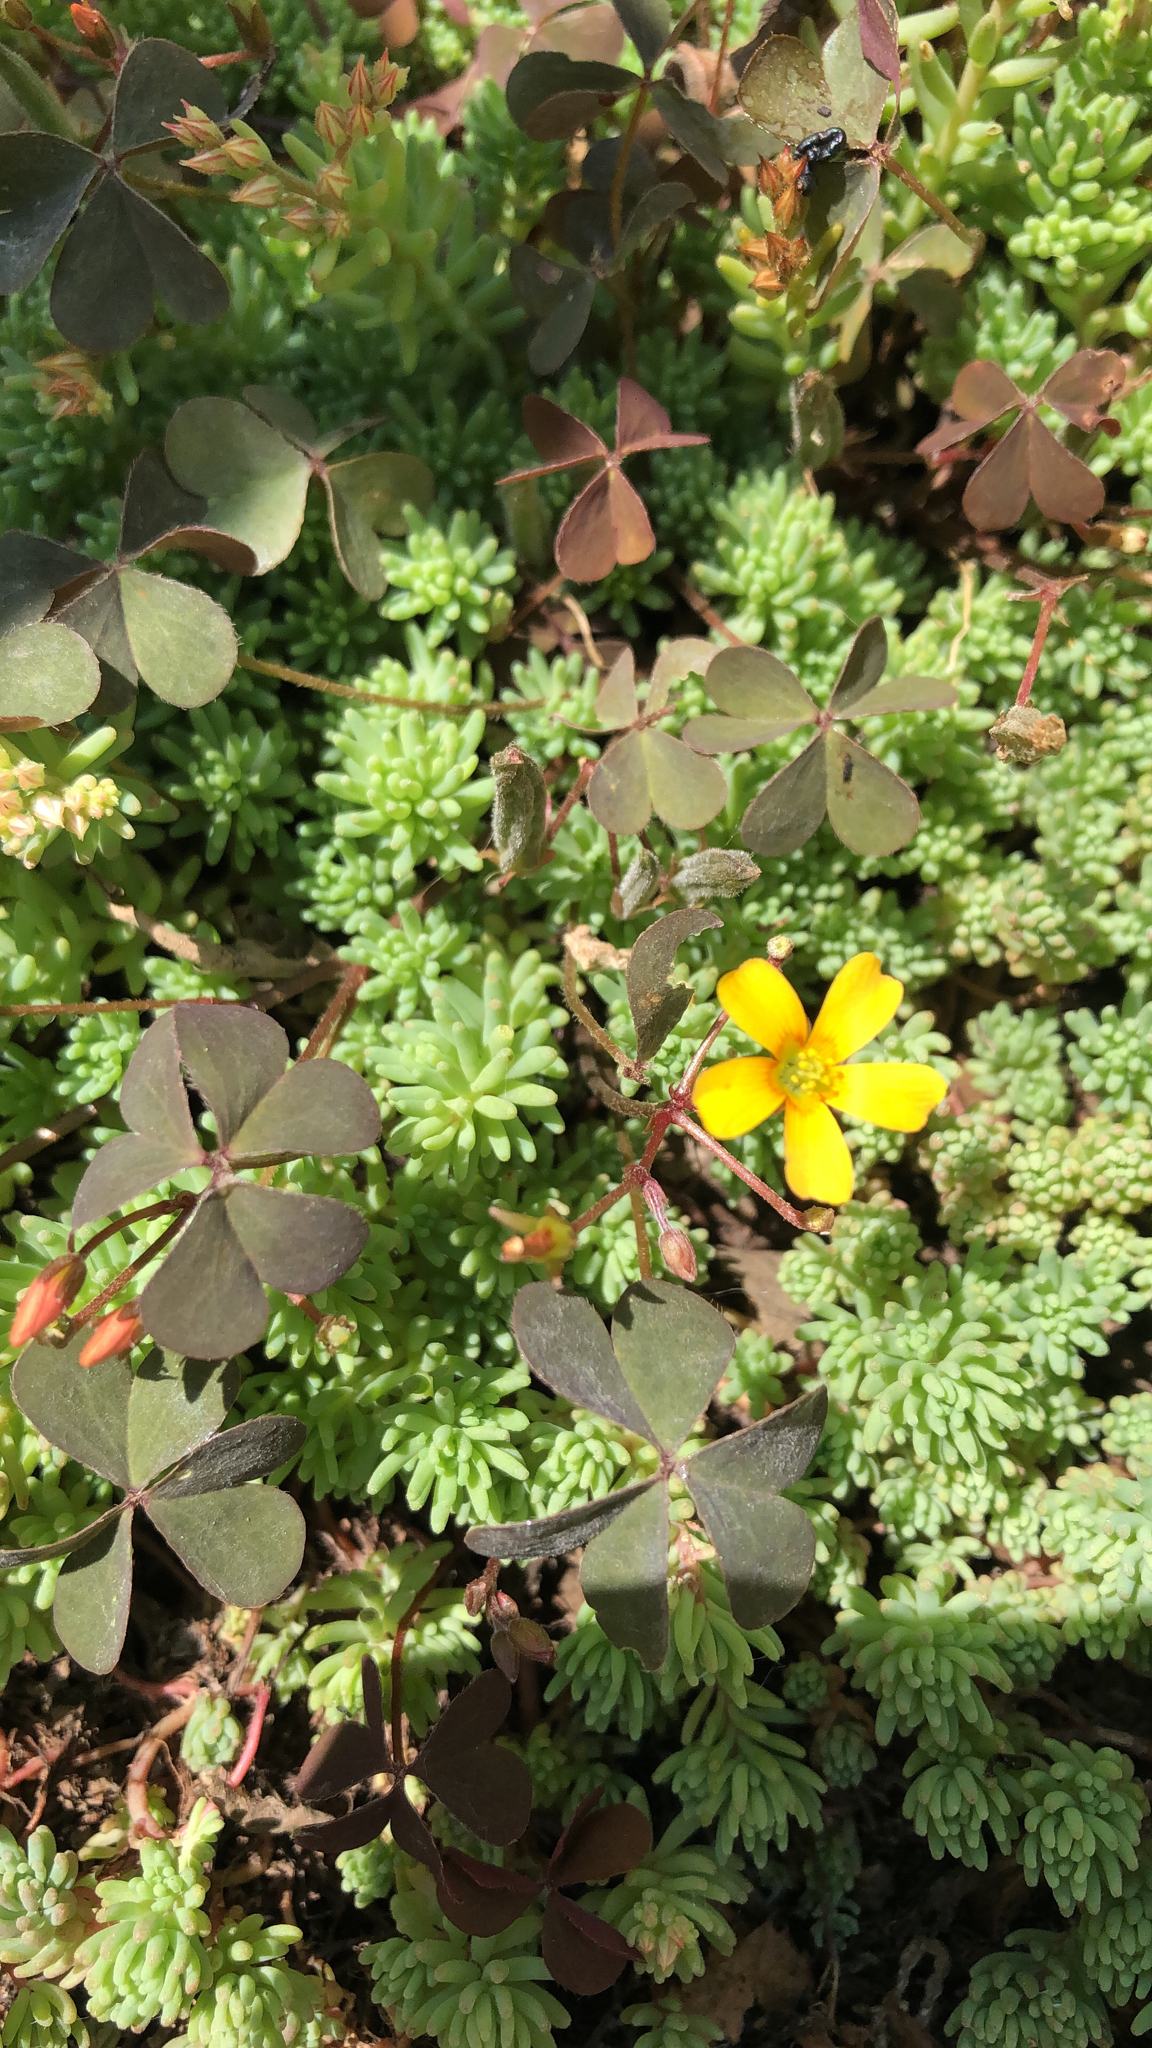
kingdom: Plantae
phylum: Tracheophyta
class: Magnoliopsida
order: Oxalidales
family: Oxalidaceae
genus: Oxalis
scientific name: Oxalis corniculata
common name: Procumbent yellow-sorrel
